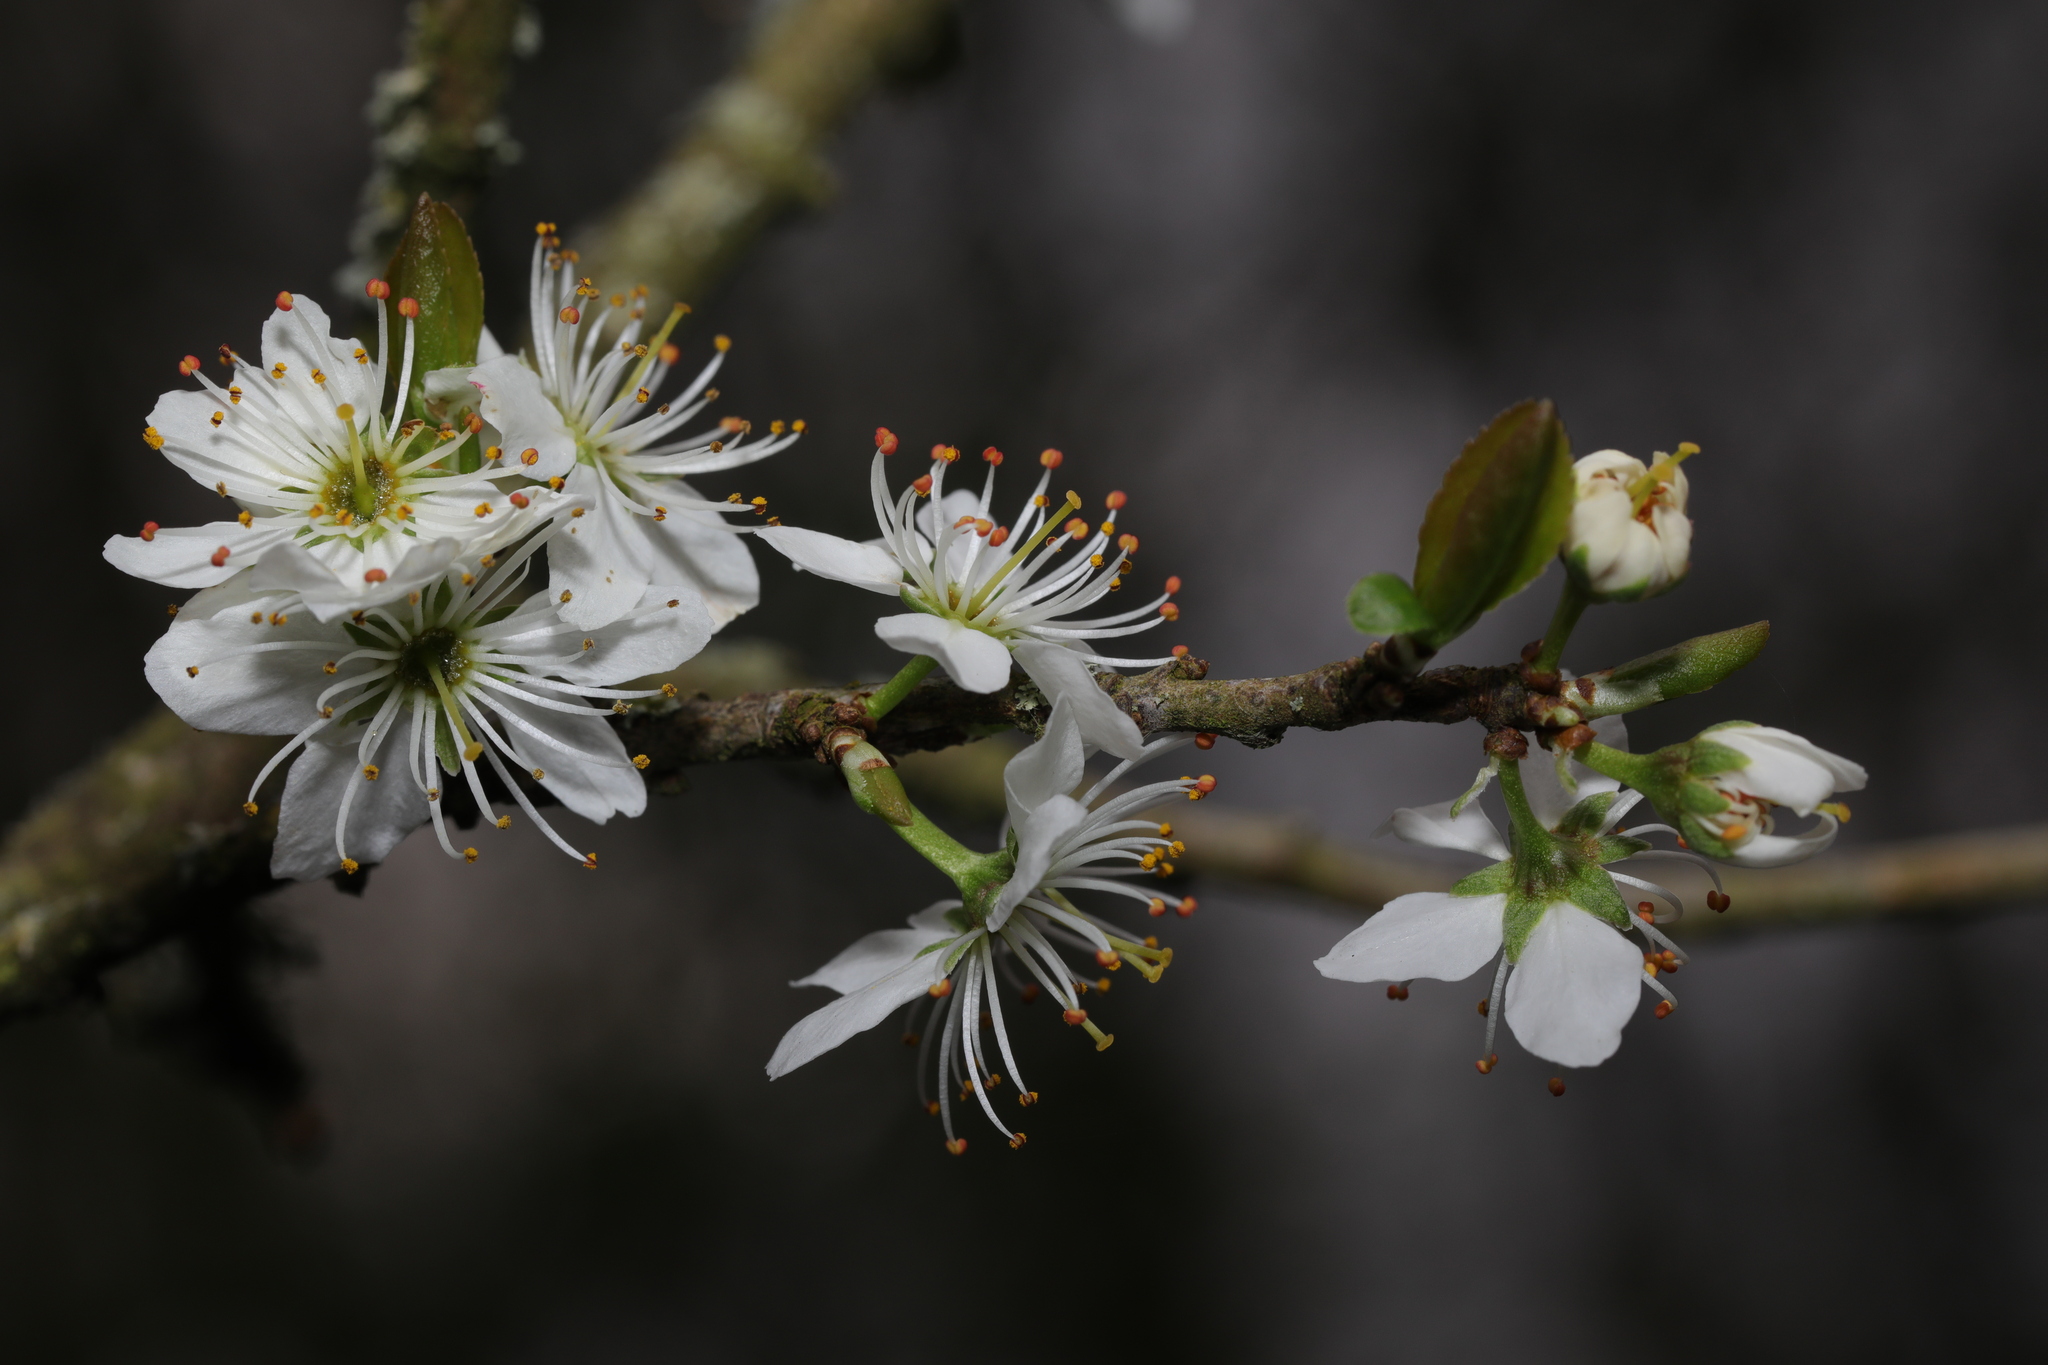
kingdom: Plantae
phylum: Tracheophyta
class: Magnoliopsida
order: Rosales
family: Rosaceae
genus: Prunus
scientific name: Prunus spinosa
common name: Blackthorn
